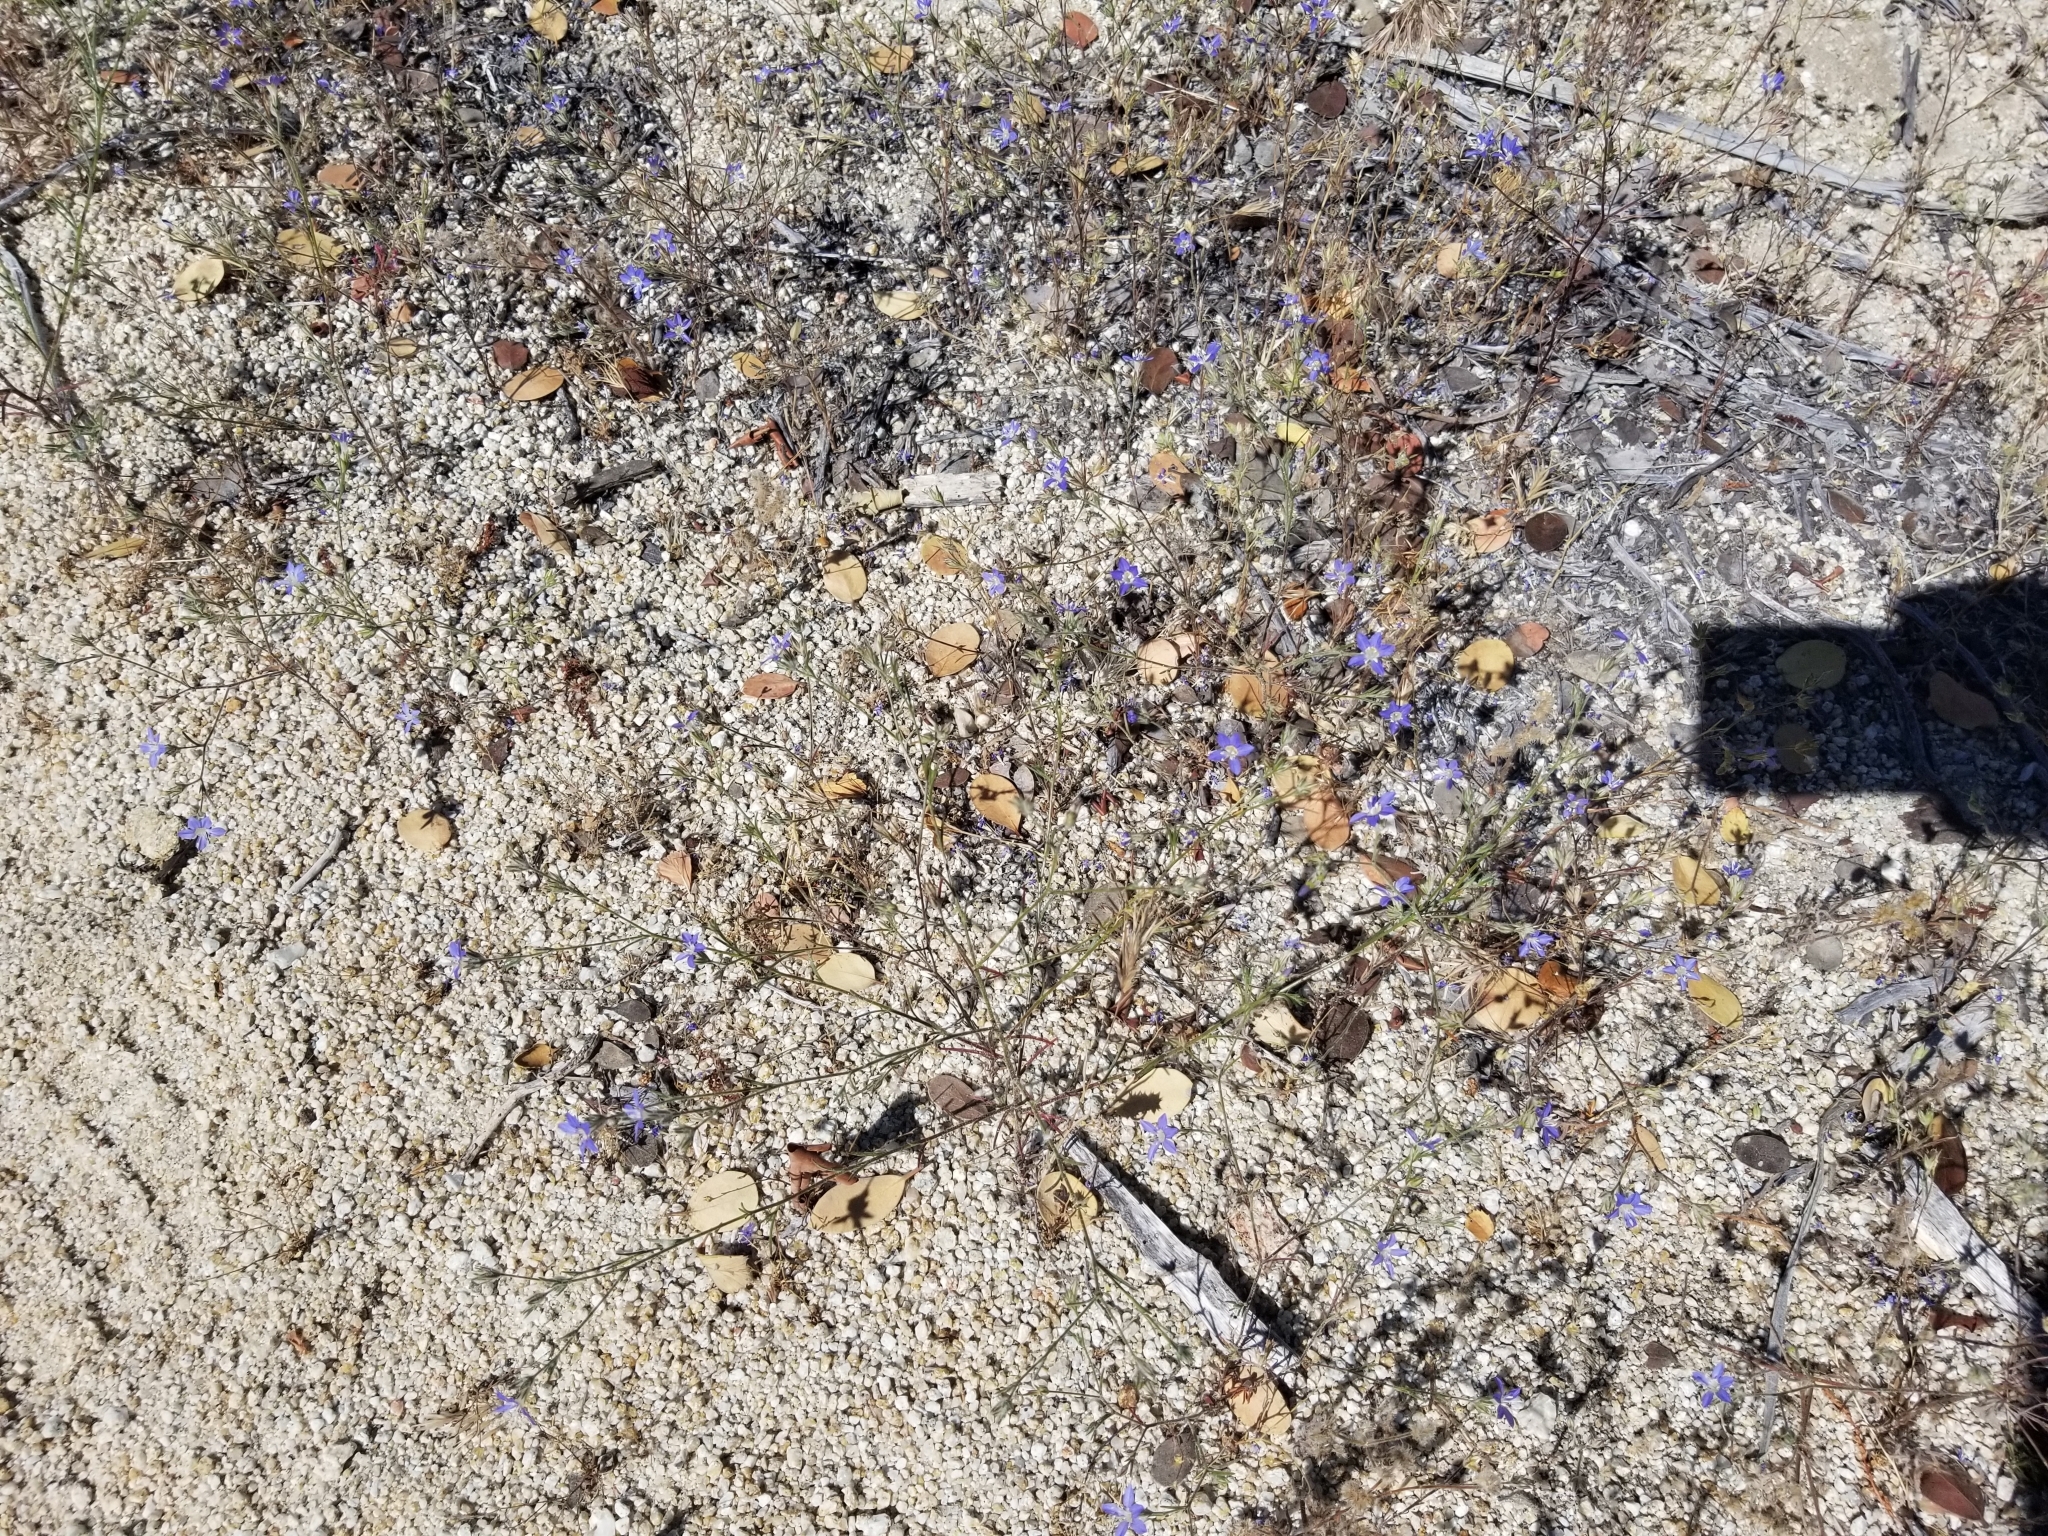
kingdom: Plantae
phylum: Tracheophyta
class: Magnoliopsida
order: Ericales
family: Polemoniaceae
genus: Eriastrum
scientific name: Eriastrum sapphirinum
